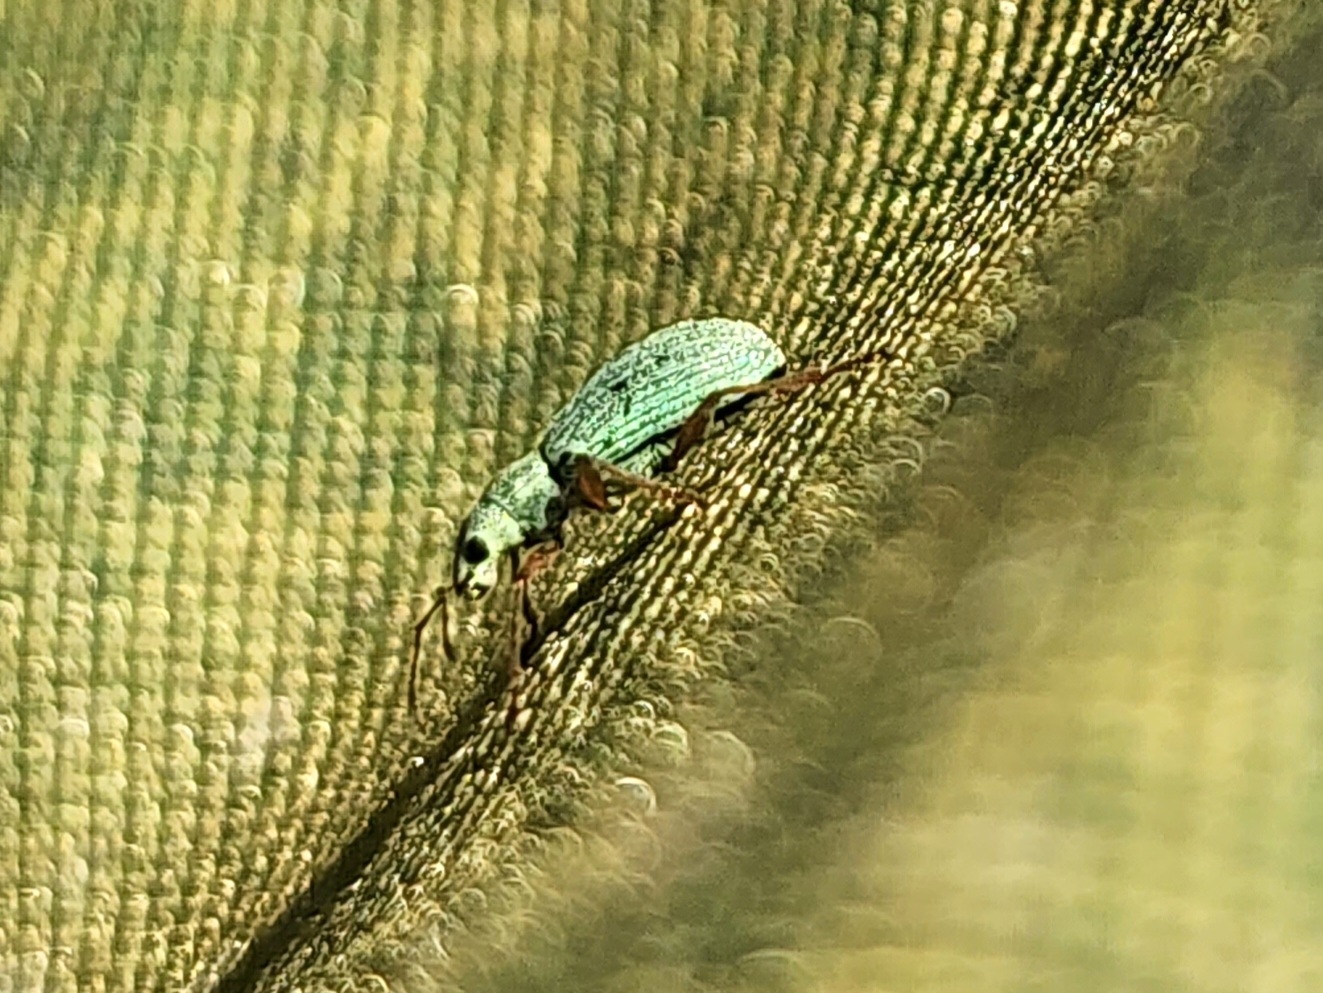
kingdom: Animalia
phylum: Arthropoda
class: Insecta
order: Coleoptera
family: Curculionidae
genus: Polydrusus
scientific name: Polydrusus impressifrons
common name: Weevil
